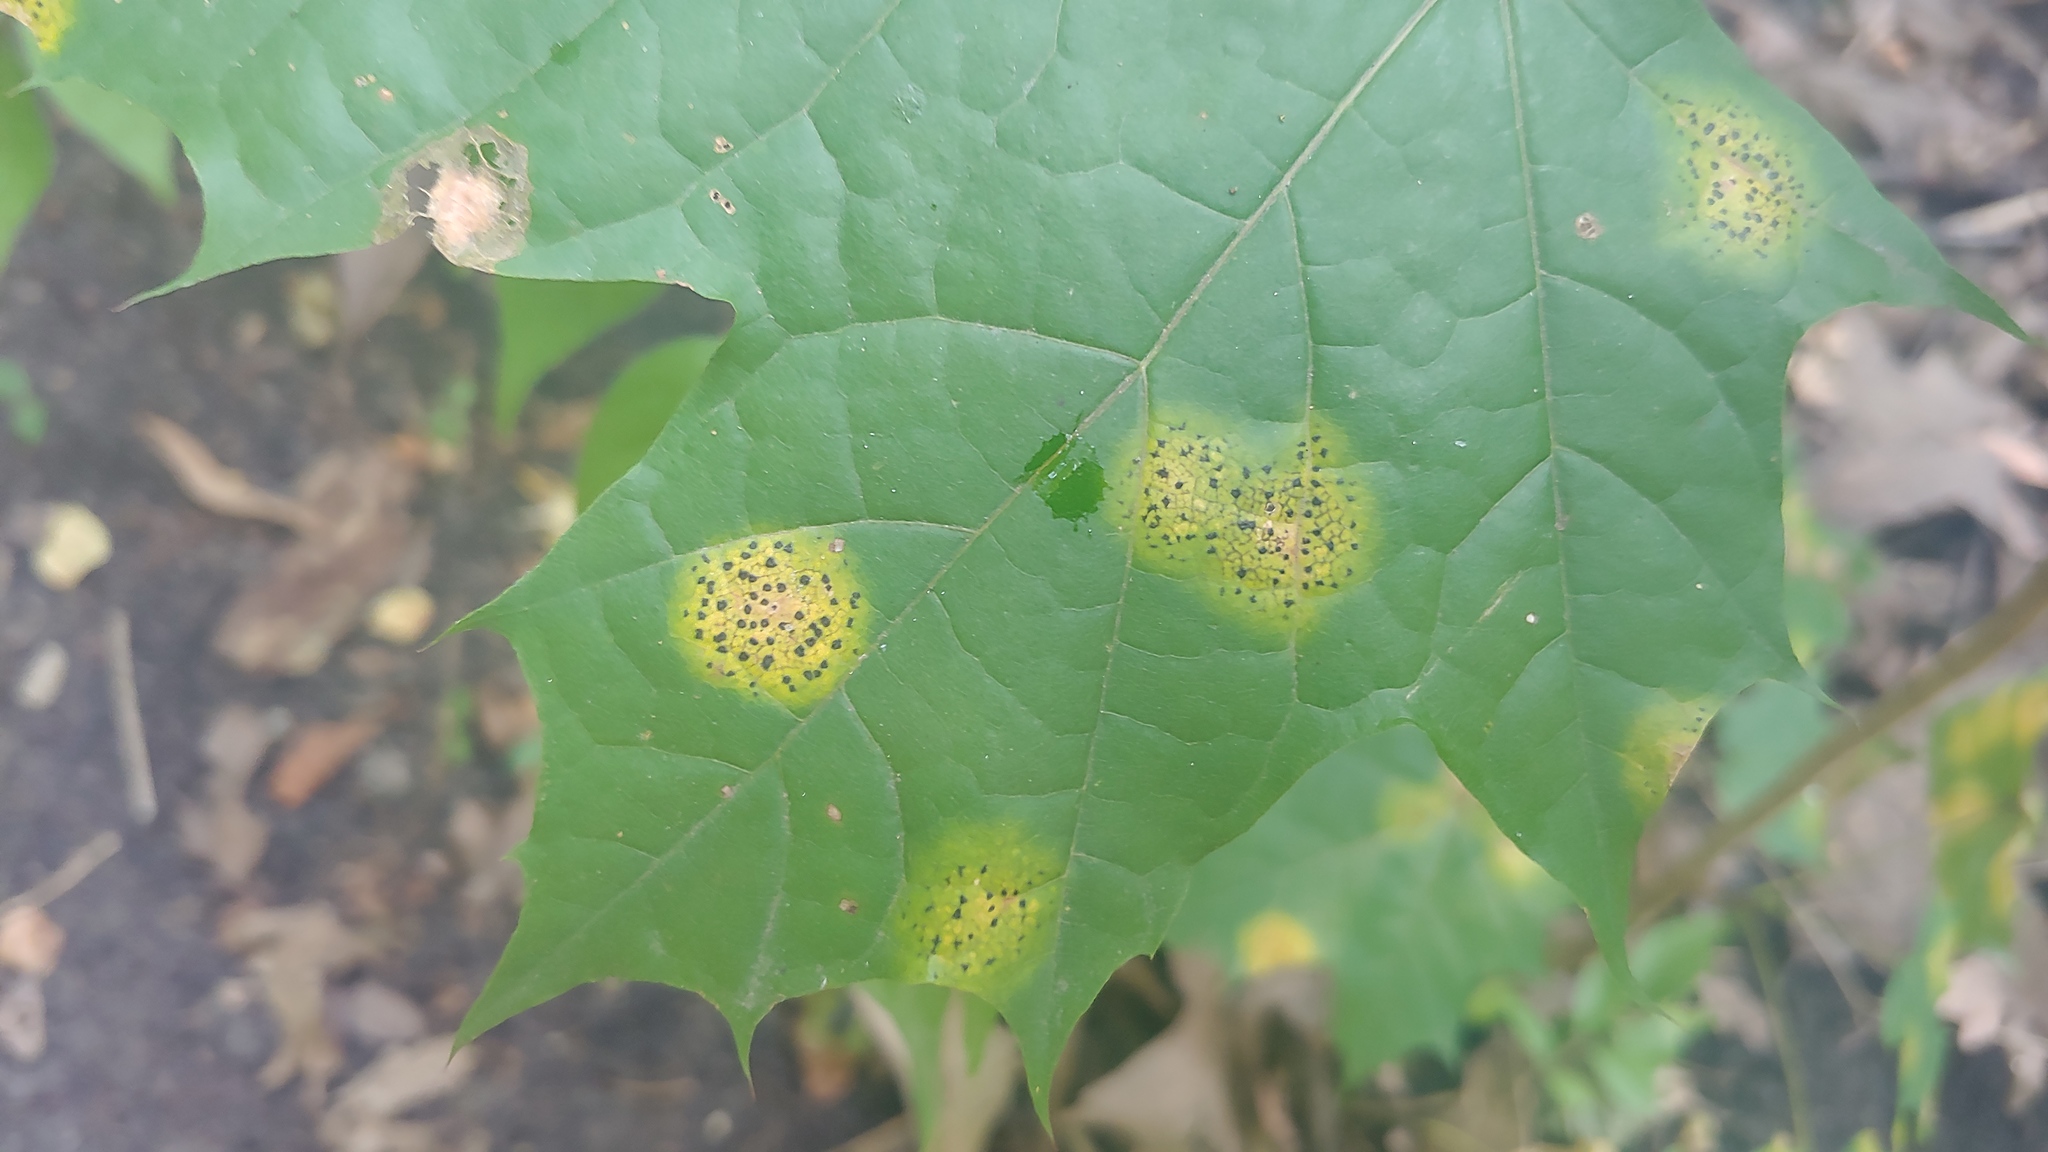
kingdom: Fungi
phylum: Ascomycota
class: Leotiomycetes
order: Rhytismatales
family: Rhytismataceae
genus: Rhytisma
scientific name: Rhytisma acerinum
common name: European tar spot
